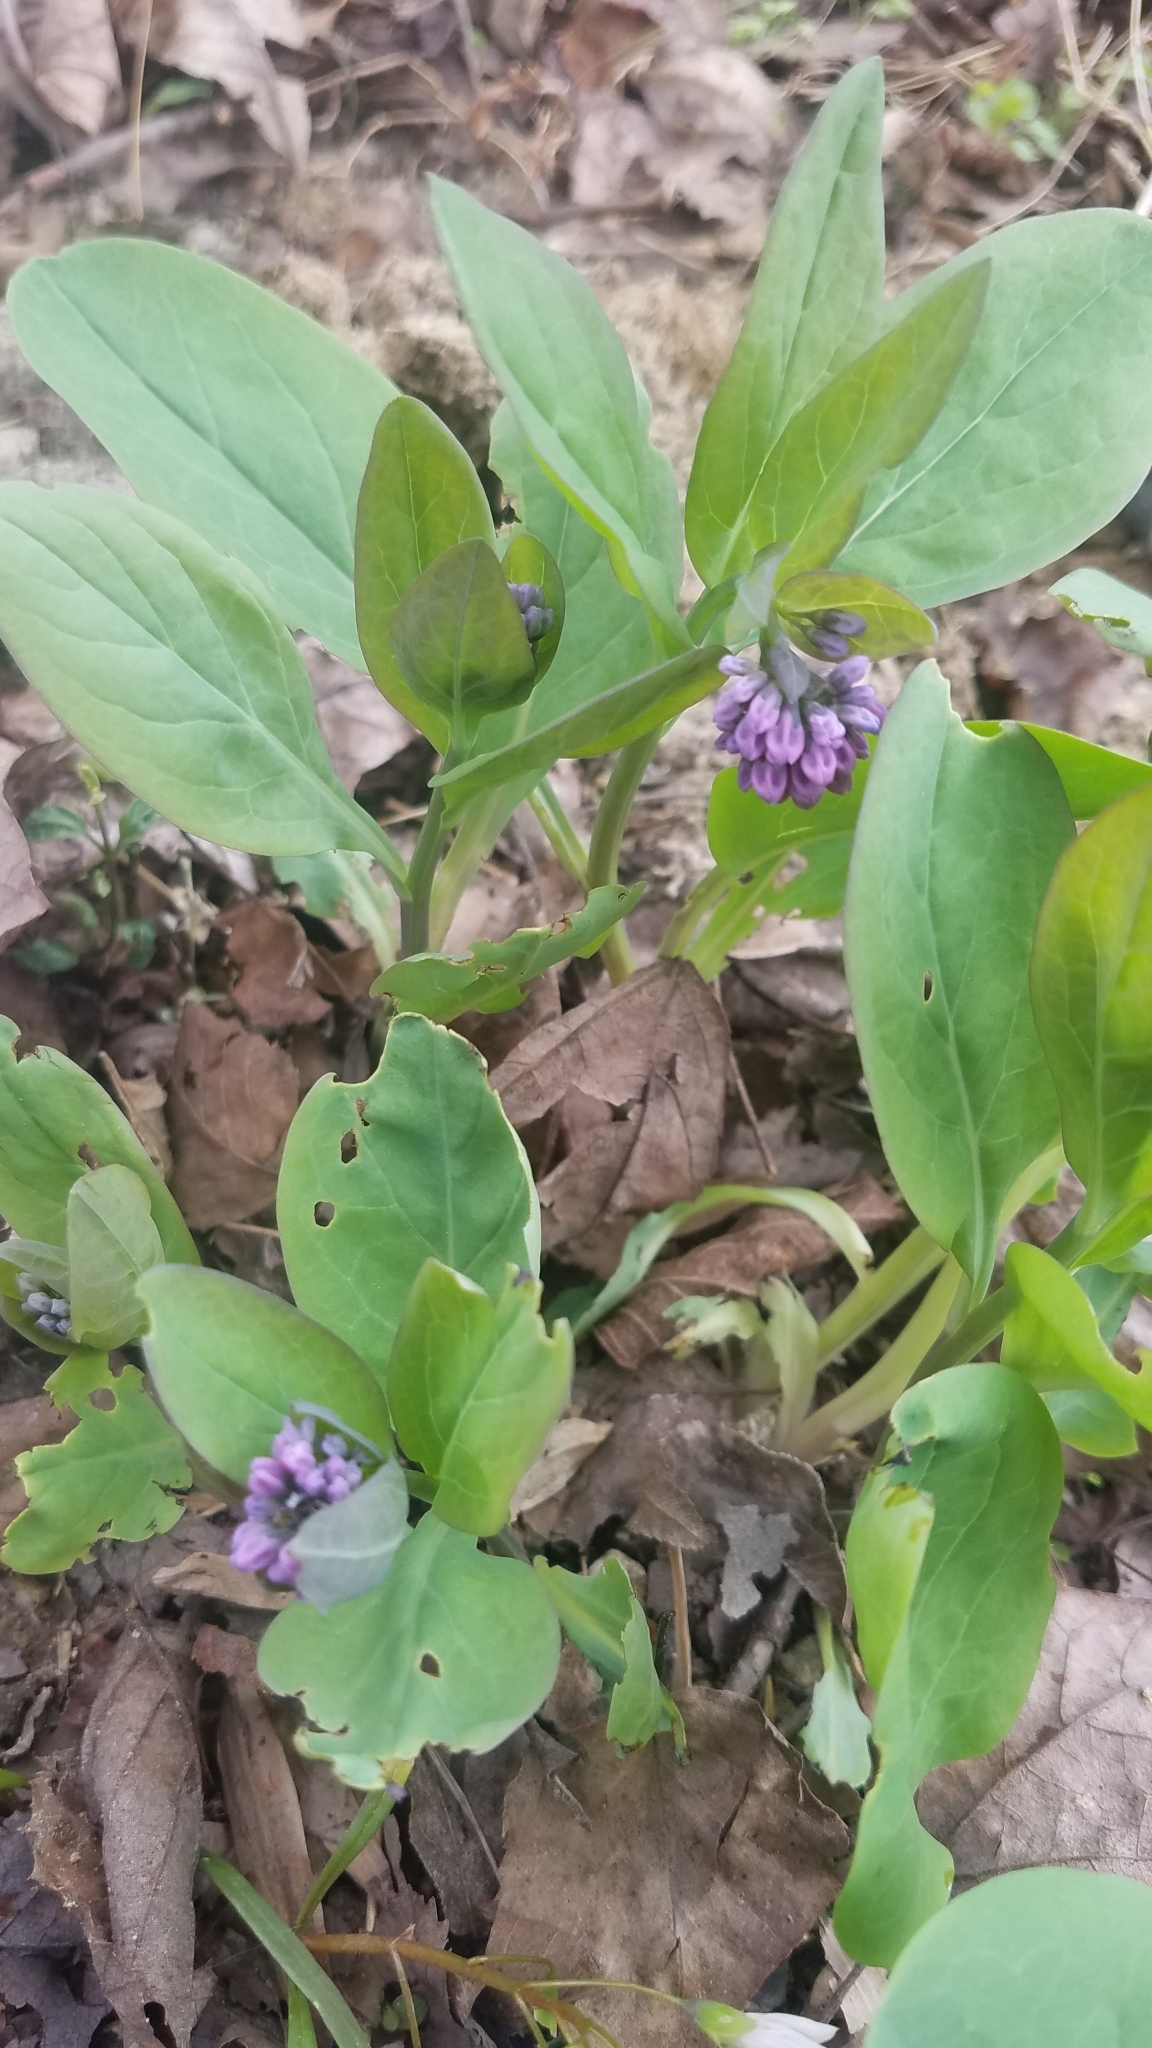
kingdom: Plantae
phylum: Tracheophyta
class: Magnoliopsida
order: Boraginales
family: Boraginaceae
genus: Mertensia
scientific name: Mertensia virginica
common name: Virginia bluebells
